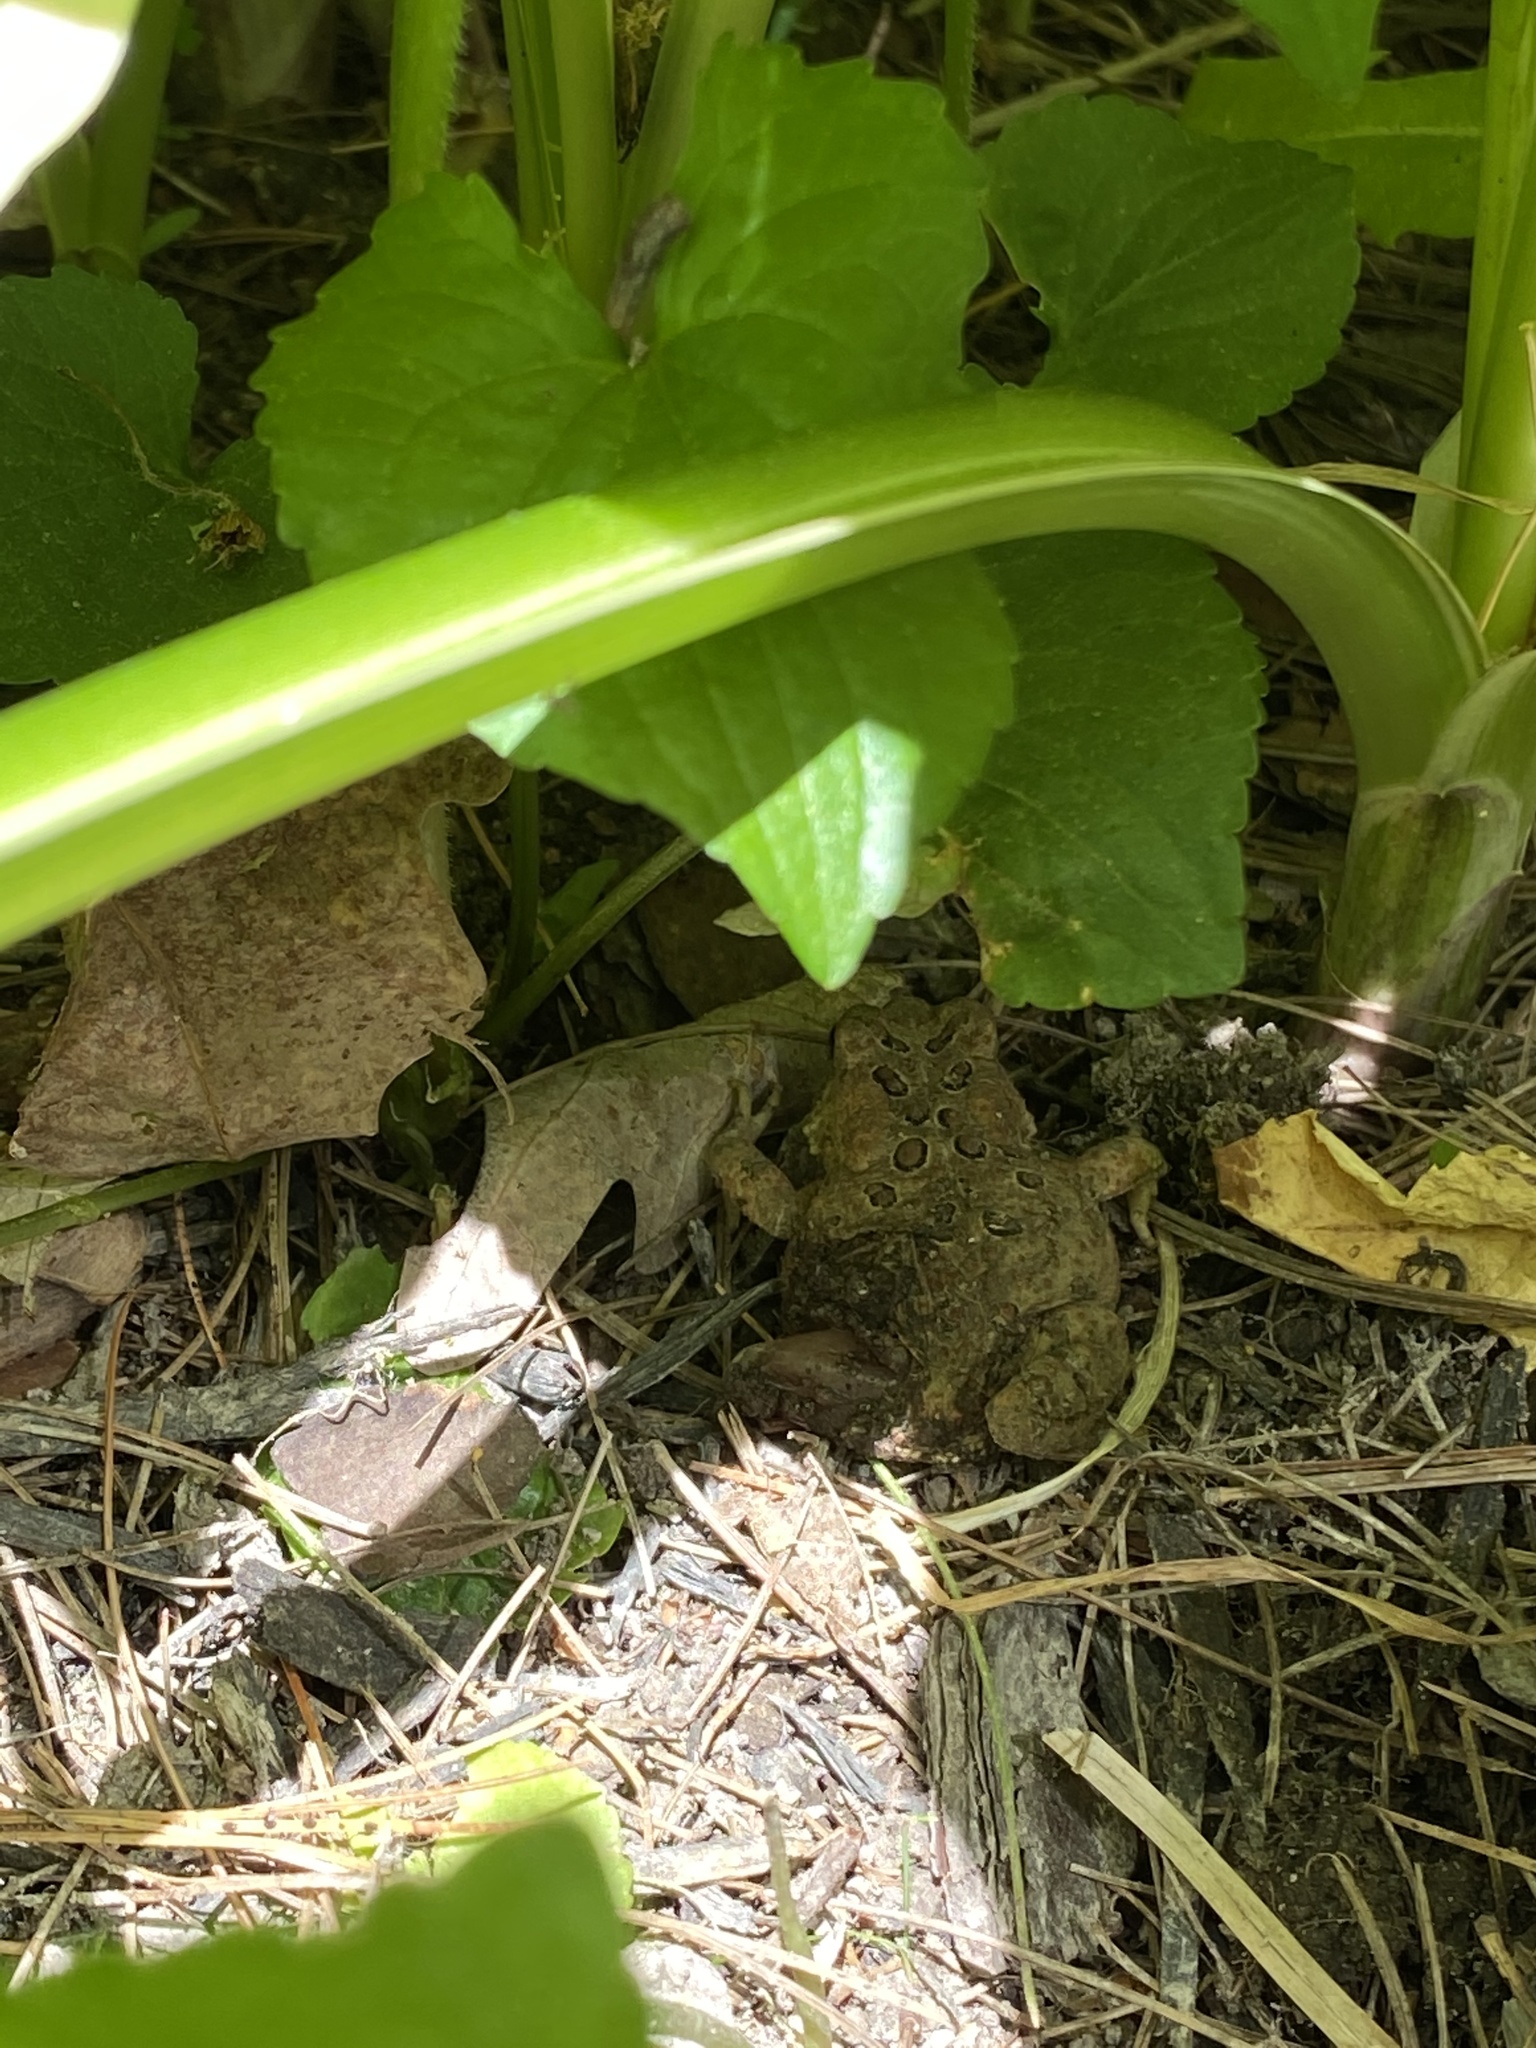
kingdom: Animalia
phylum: Chordata
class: Amphibia
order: Anura
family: Bufonidae
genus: Anaxyrus
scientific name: Anaxyrus americanus
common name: American toad
